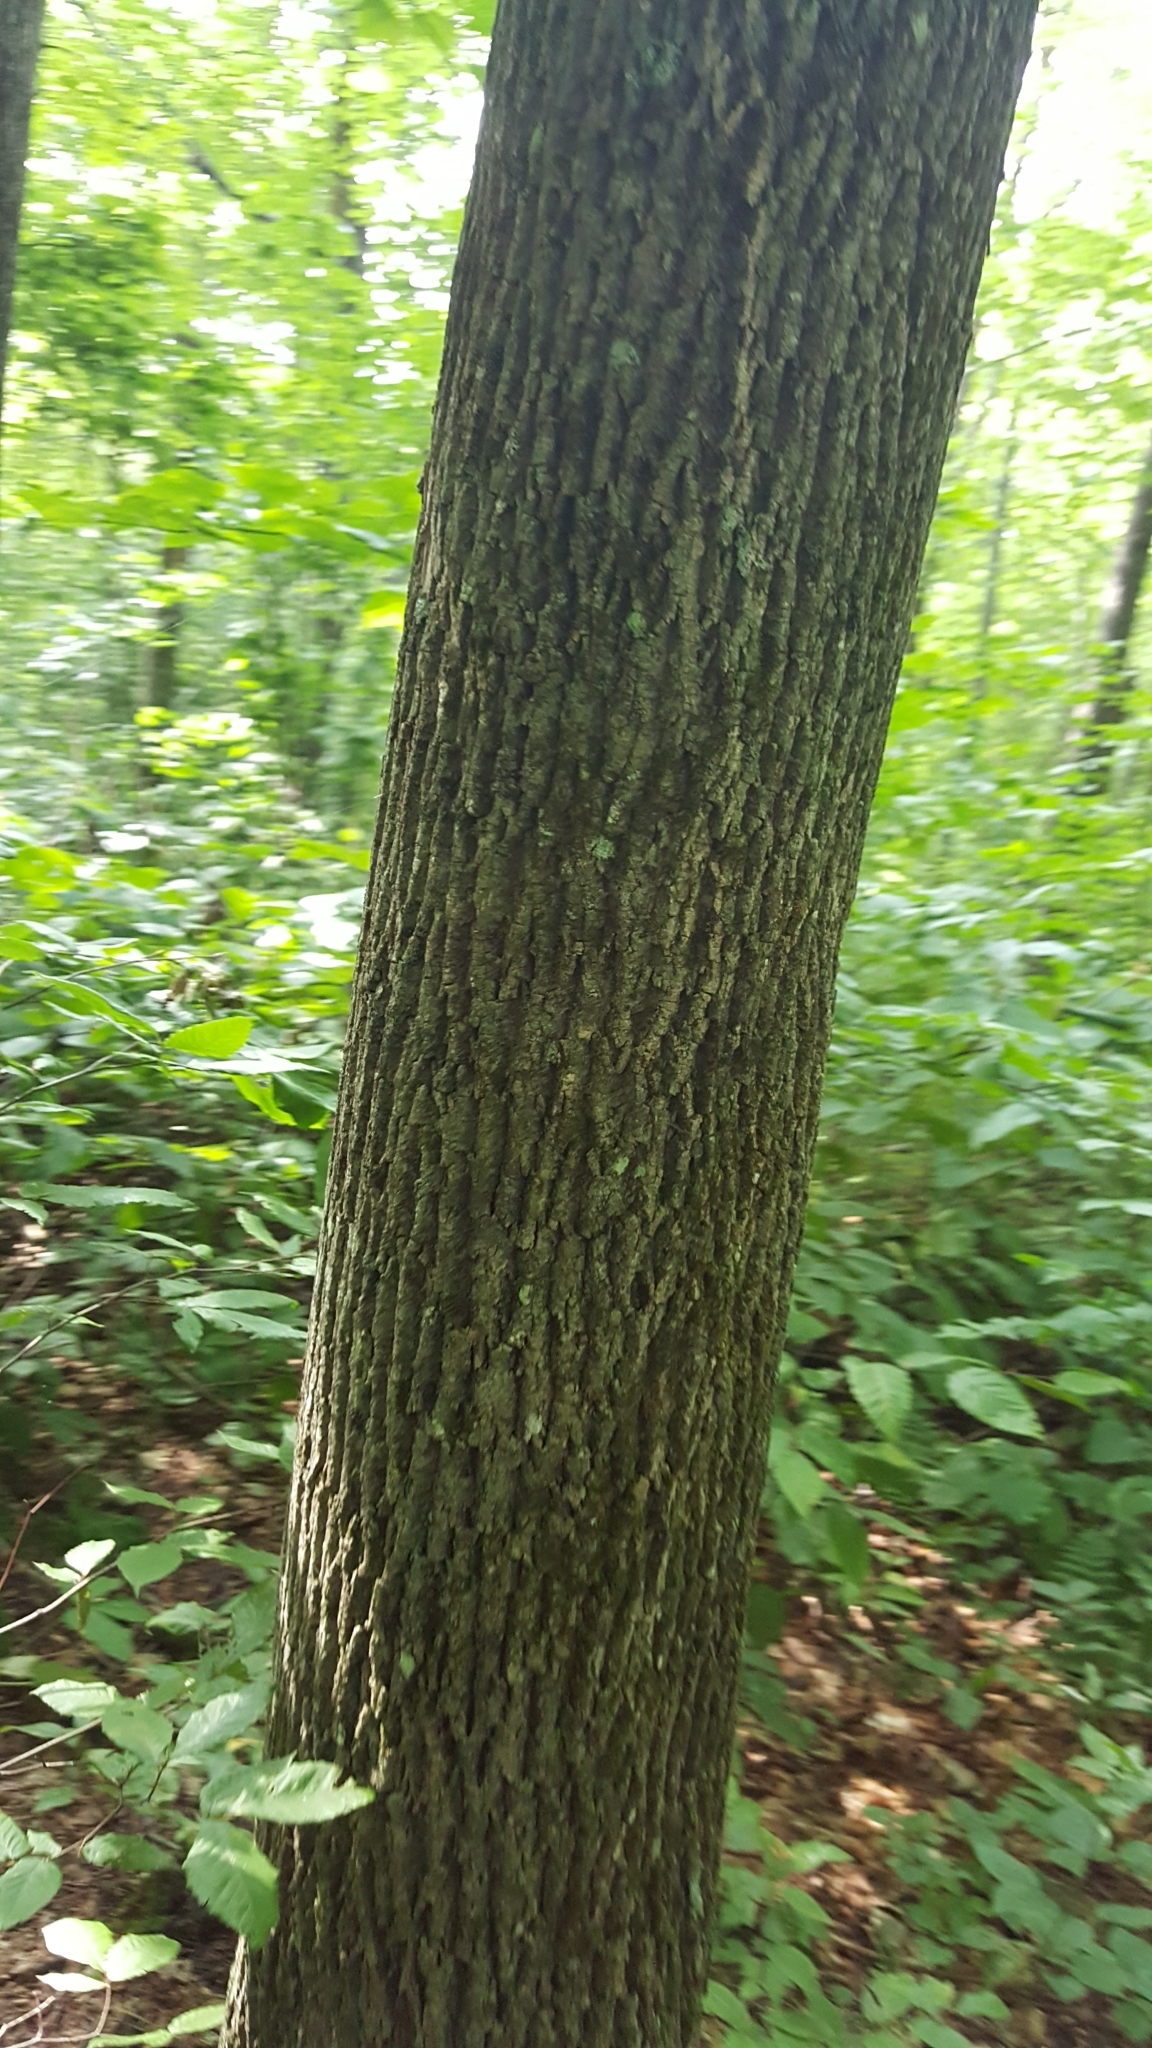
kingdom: Plantae
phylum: Tracheophyta
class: Magnoliopsida
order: Lamiales
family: Oleaceae
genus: Fraxinus
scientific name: Fraxinus americana
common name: White ash
